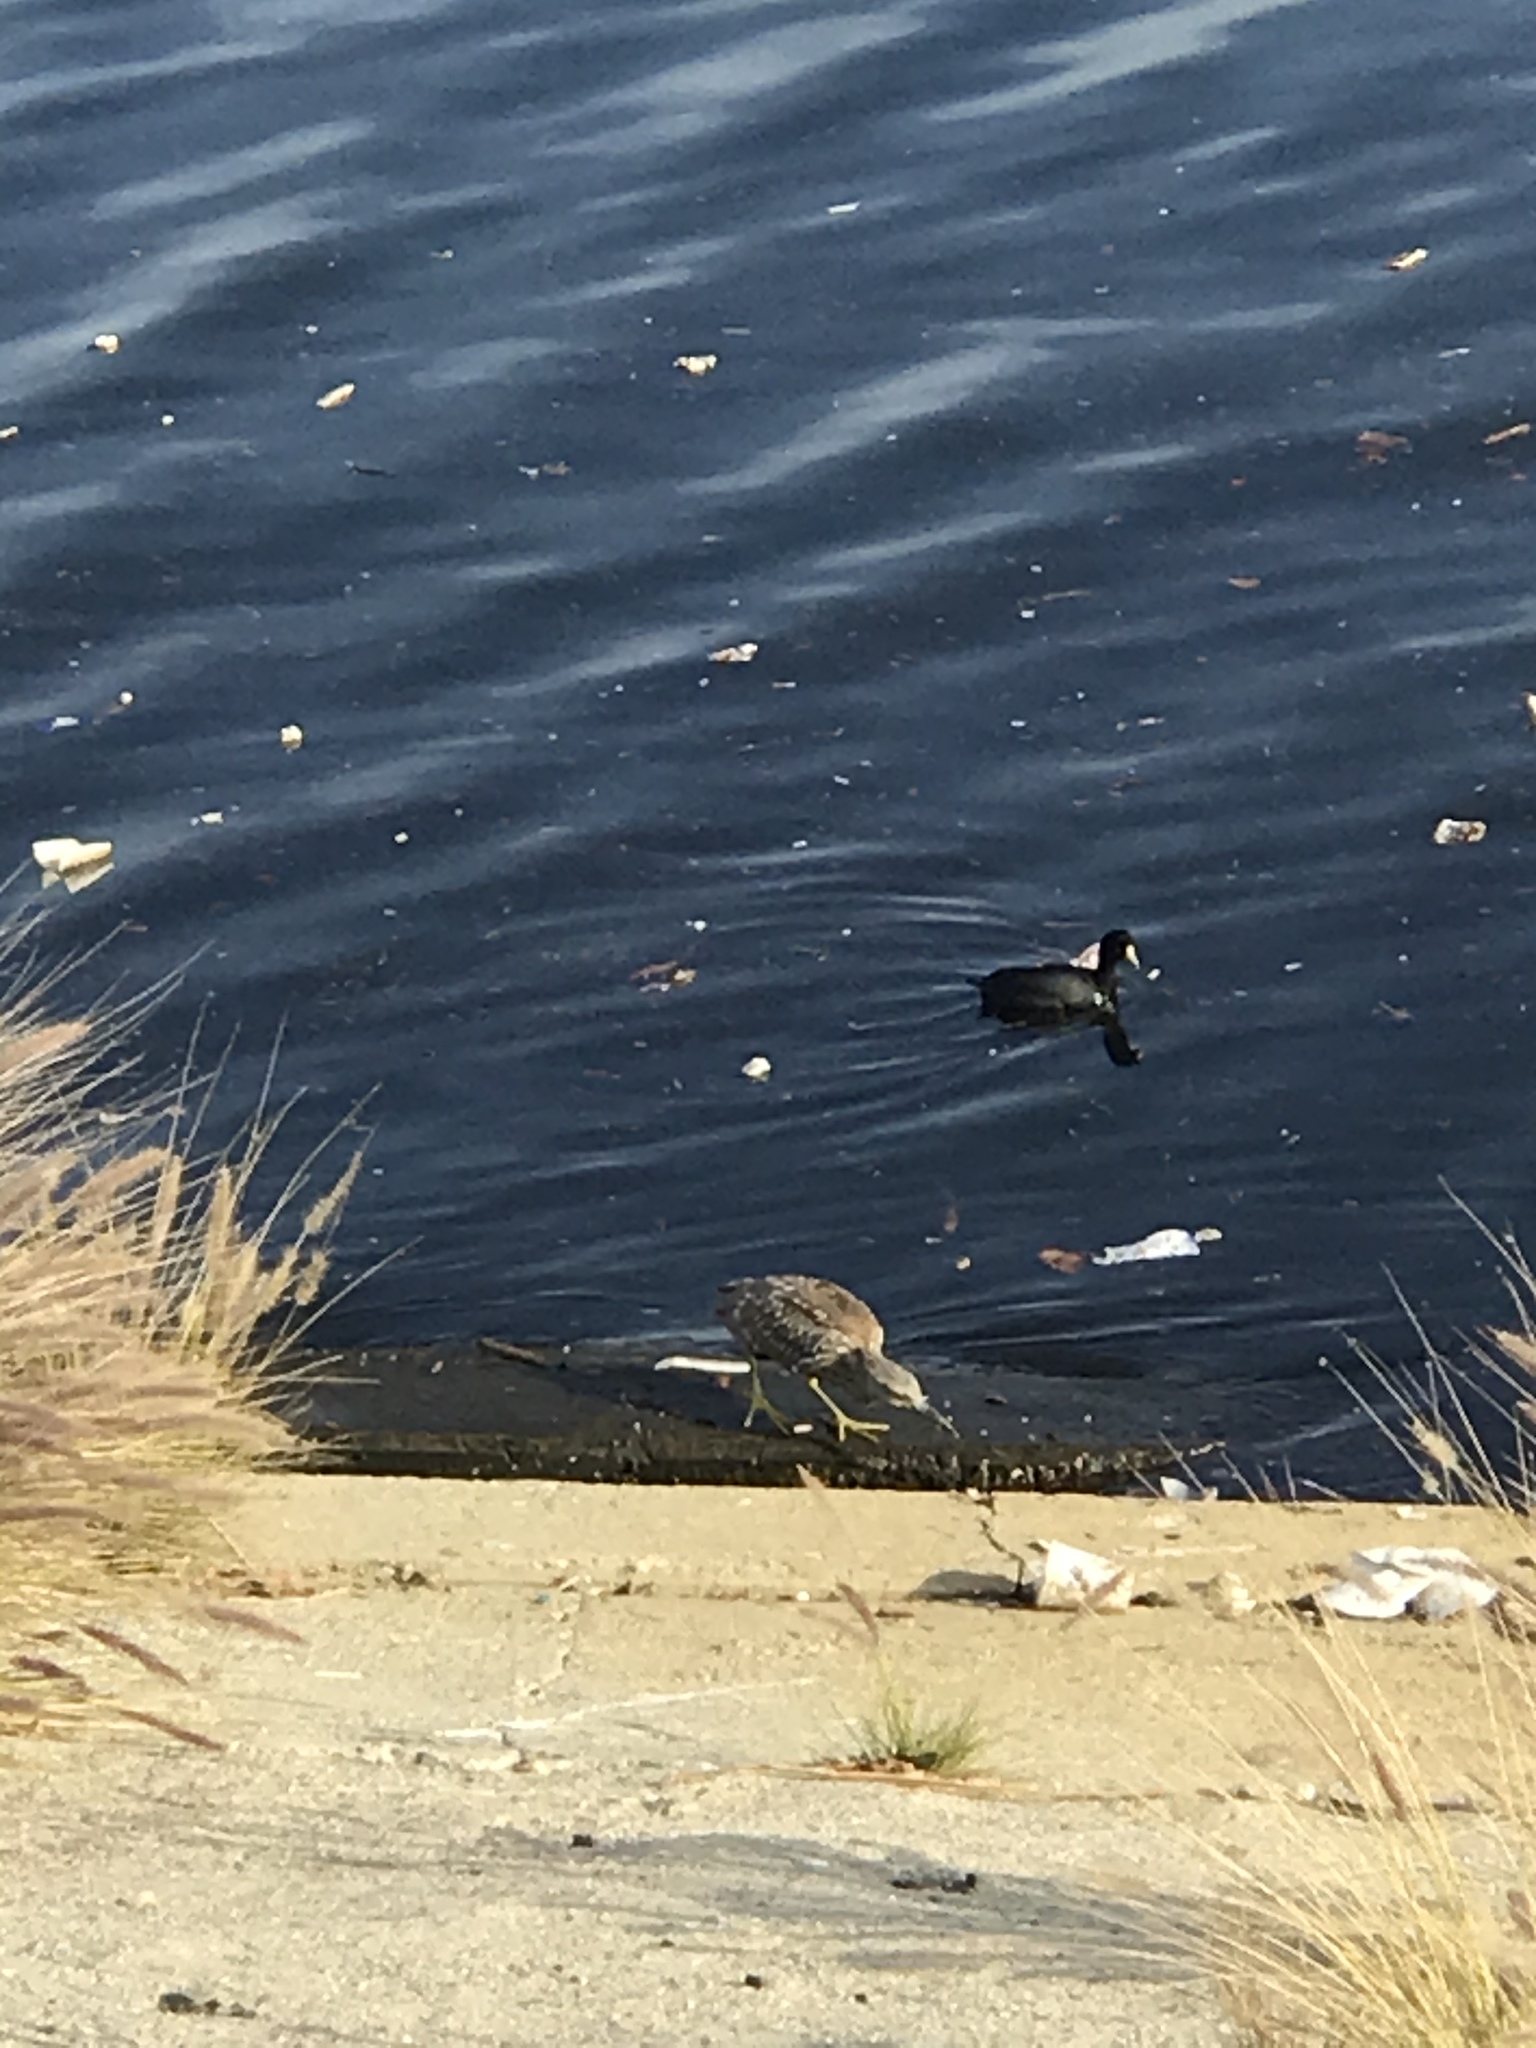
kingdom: Animalia
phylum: Chordata
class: Aves
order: Pelecaniformes
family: Ardeidae
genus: Nycticorax
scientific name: Nycticorax nycticorax
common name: Black-crowned night heron
